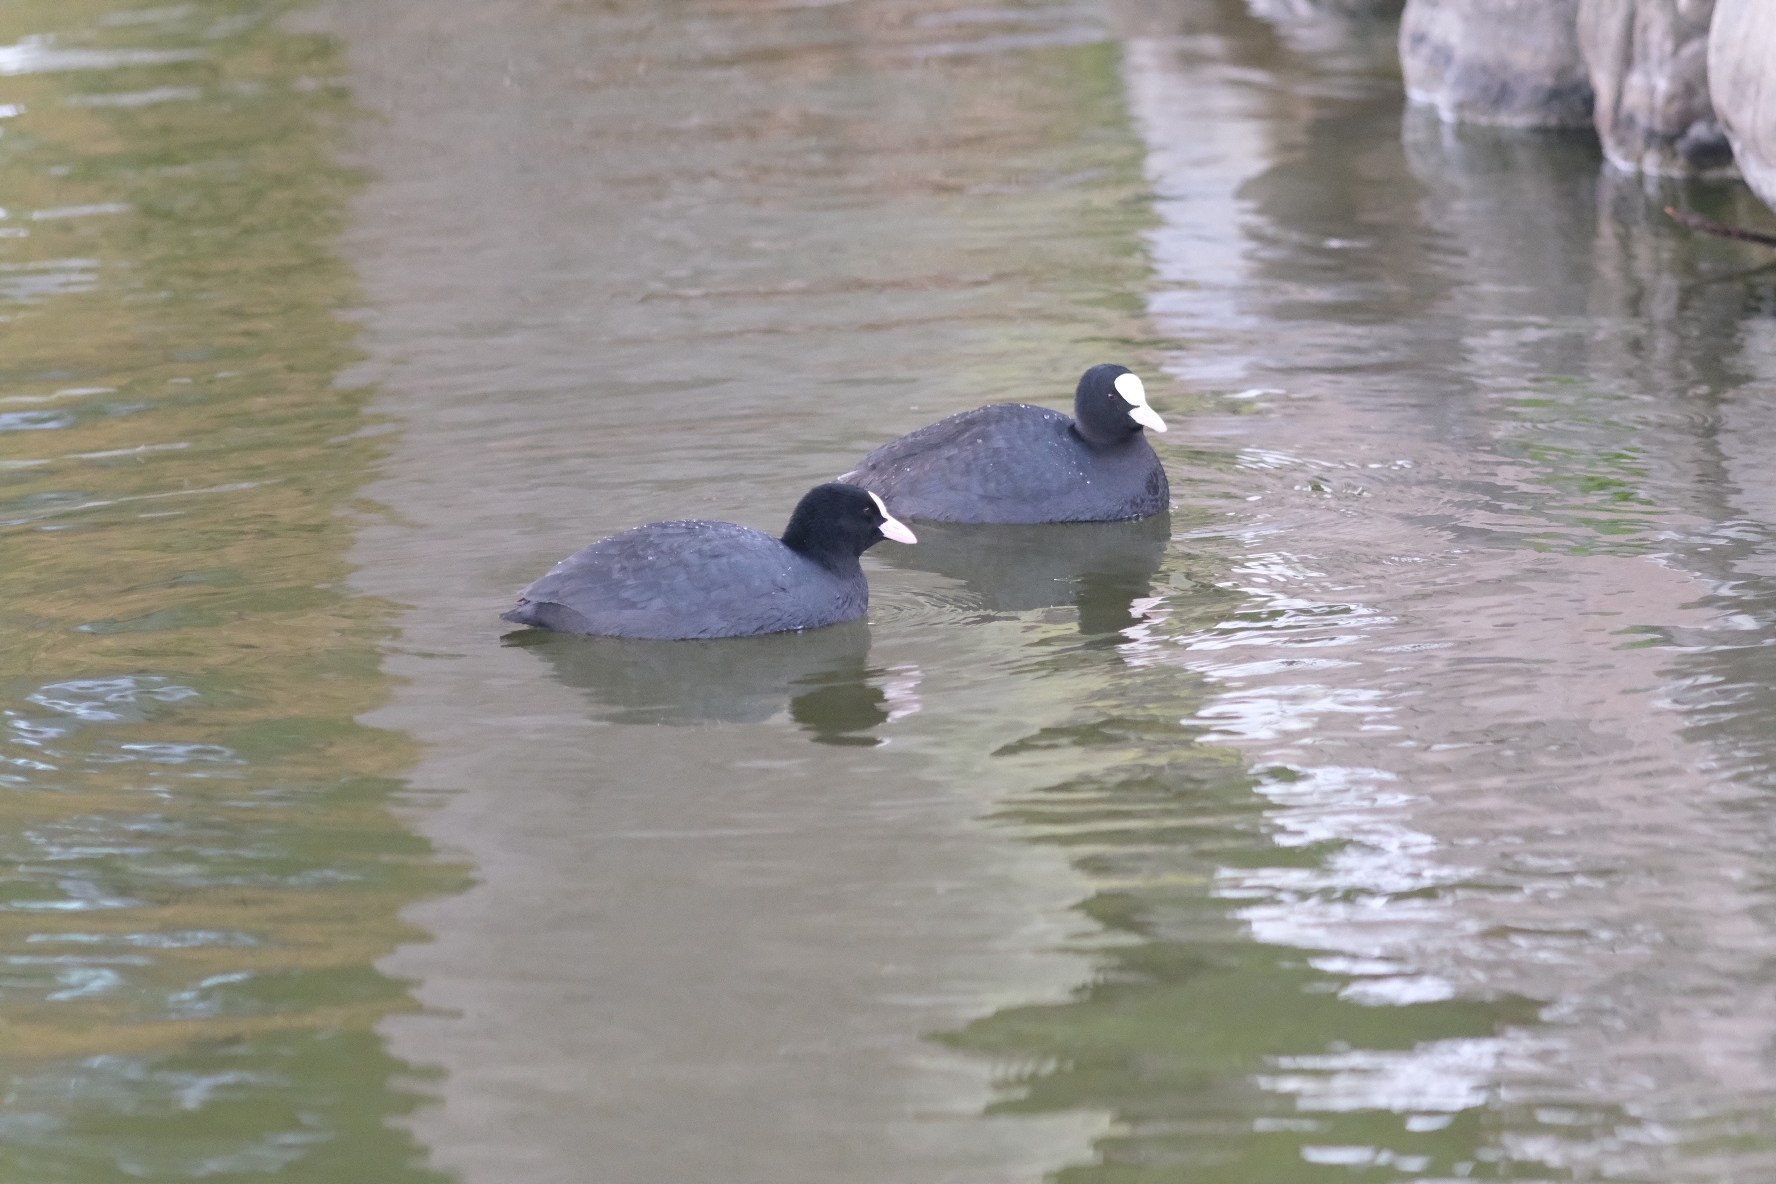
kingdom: Animalia
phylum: Chordata
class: Aves
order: Gruiformes
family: Rallidae
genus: Fulica
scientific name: Fulica atra
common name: Eurasian coot
